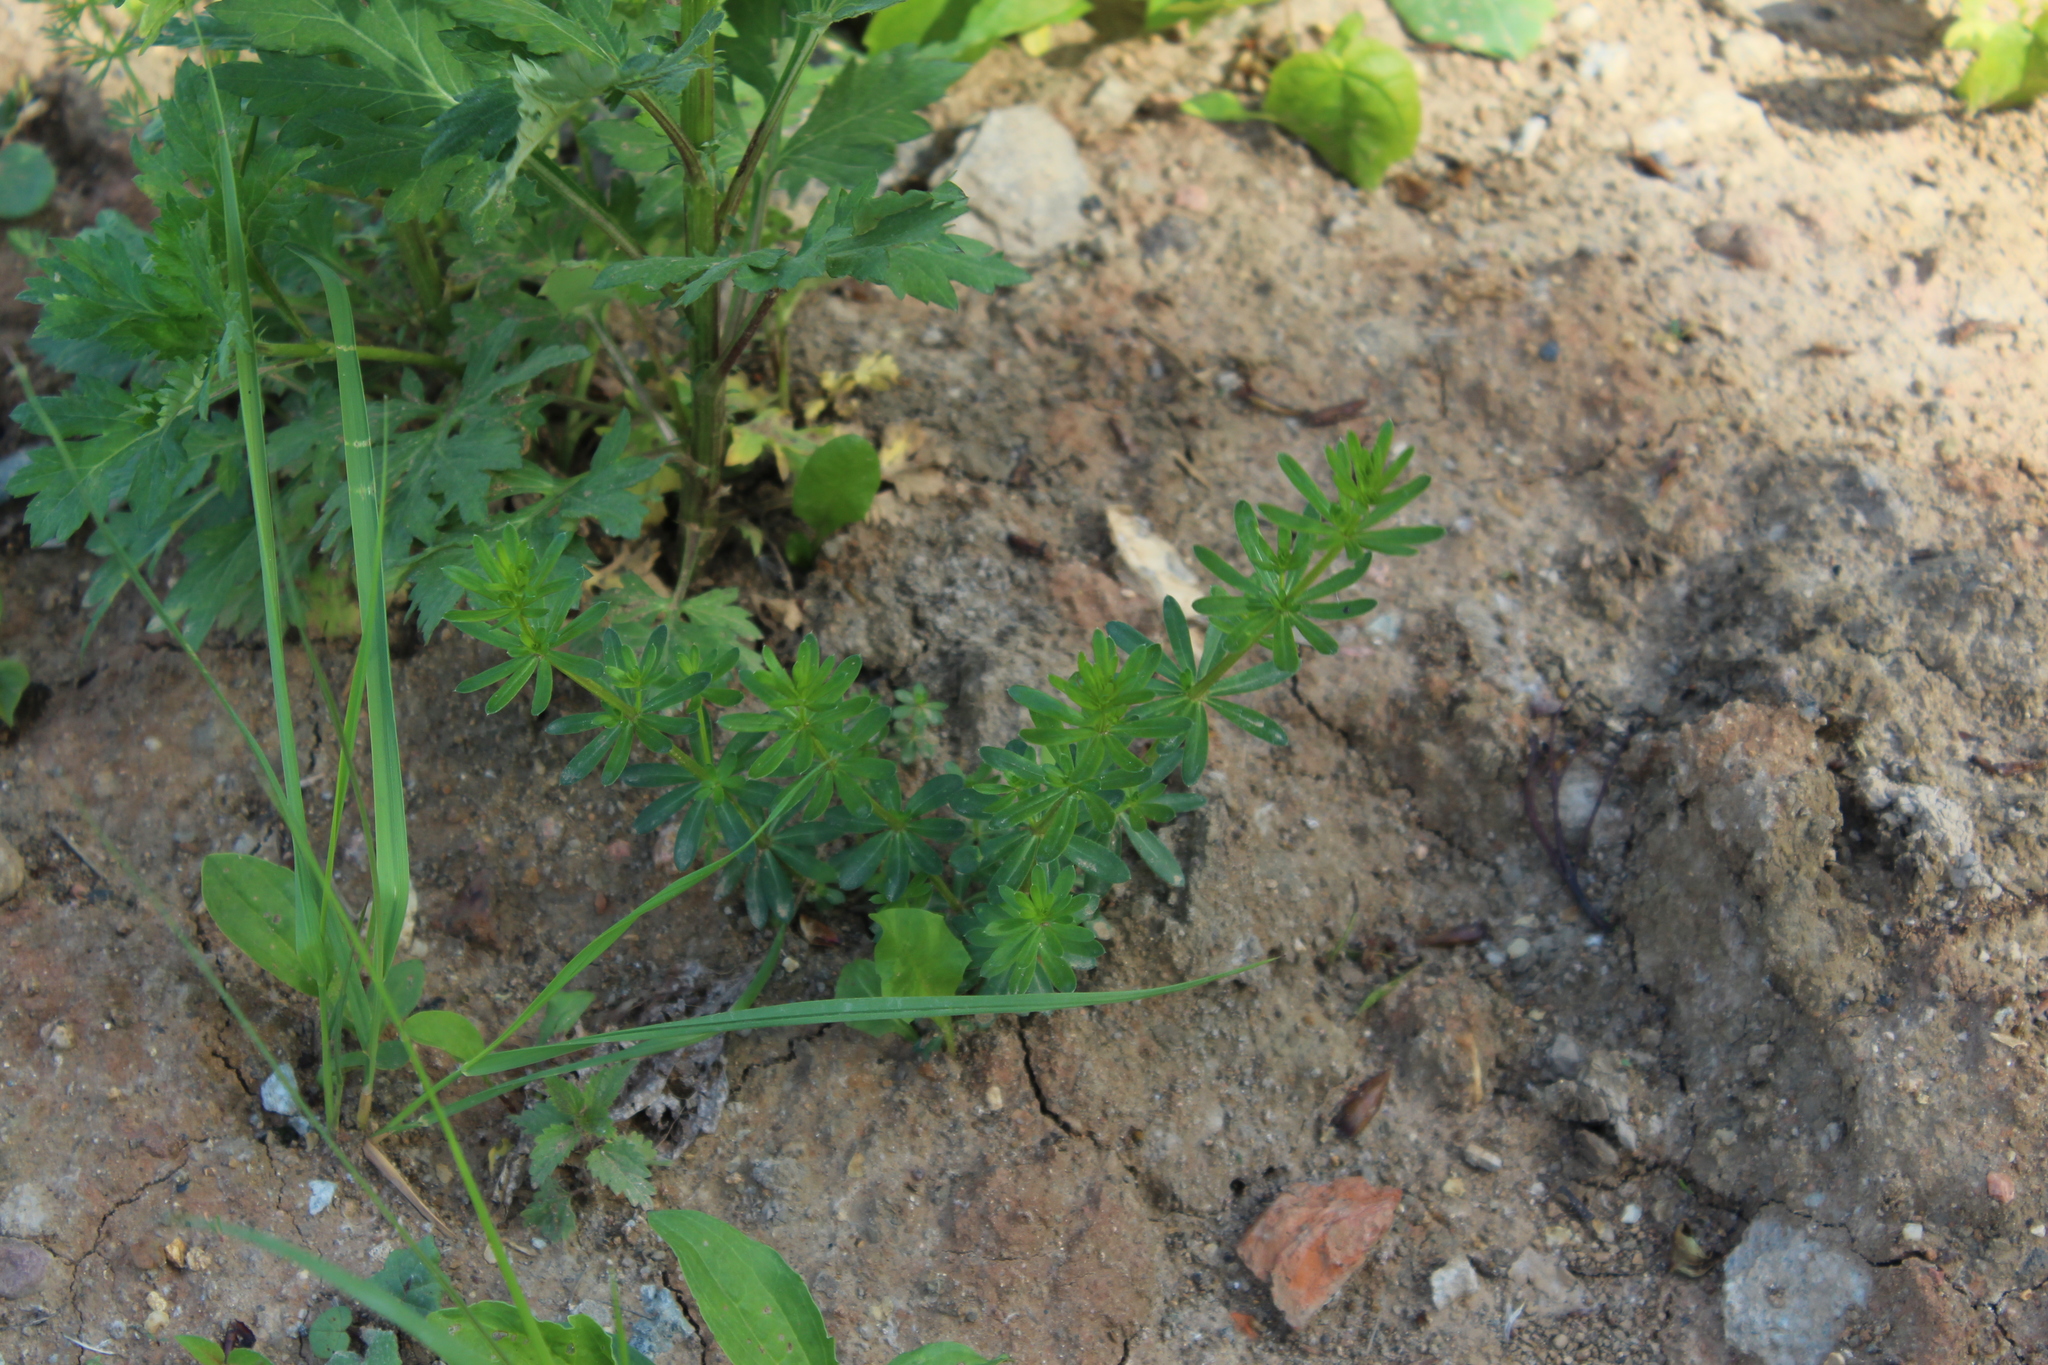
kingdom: Plantae
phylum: Tracheophyta
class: Magnoliopsida
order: Gentianales
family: Rubiaceae
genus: Galium
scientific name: Galium mollugo
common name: Hedge bedstraw
